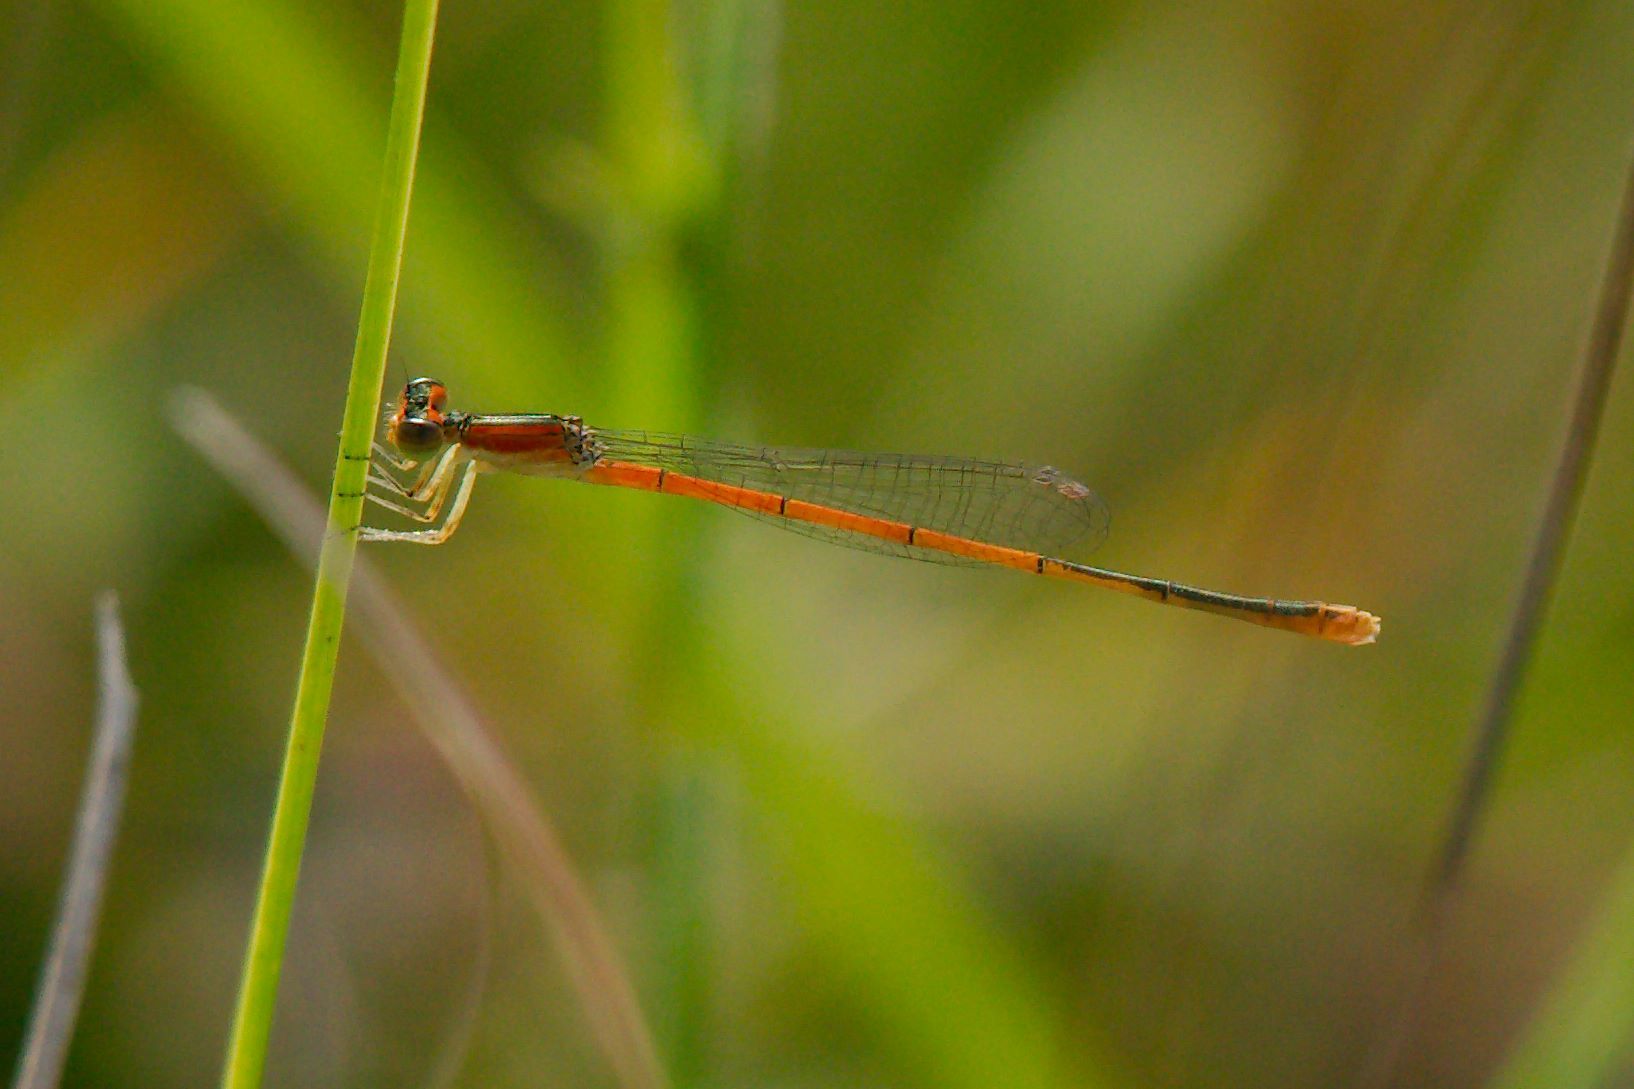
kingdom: Animalia
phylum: Arthropoda
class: Insecta
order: Odonata
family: Coenagrionidae
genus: Ischnura
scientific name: Ischnura hastata
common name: Citrine forktail
